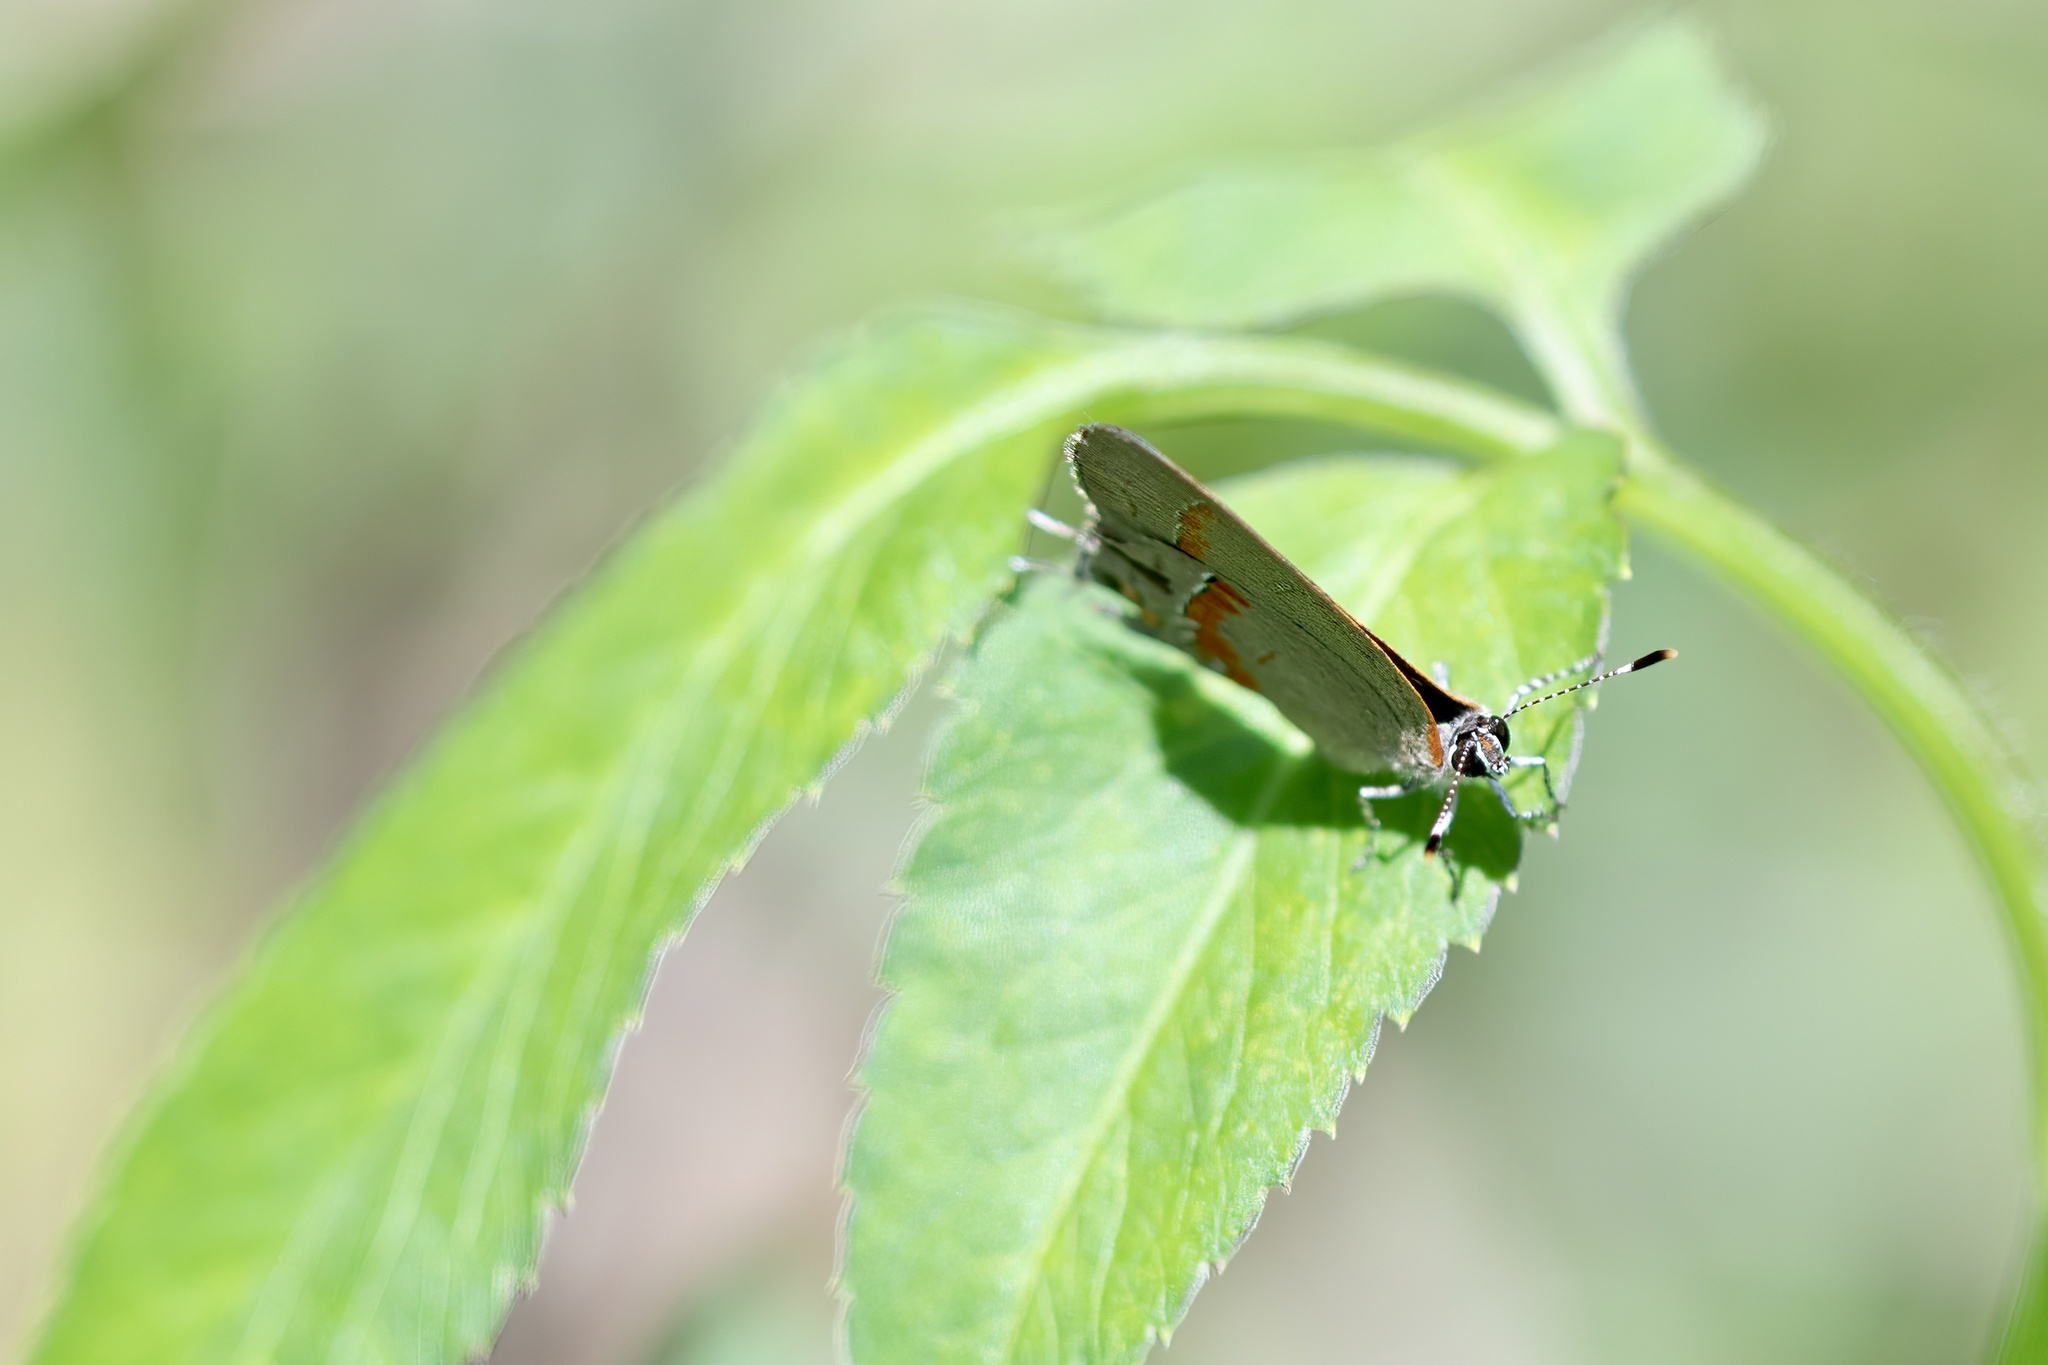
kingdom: Animalia
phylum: Arthropoda
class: Insecta
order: Lepidoptera
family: Lycaenidae
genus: Calycopis
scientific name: Calycopis cecrops
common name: Red-banded hairstreak
